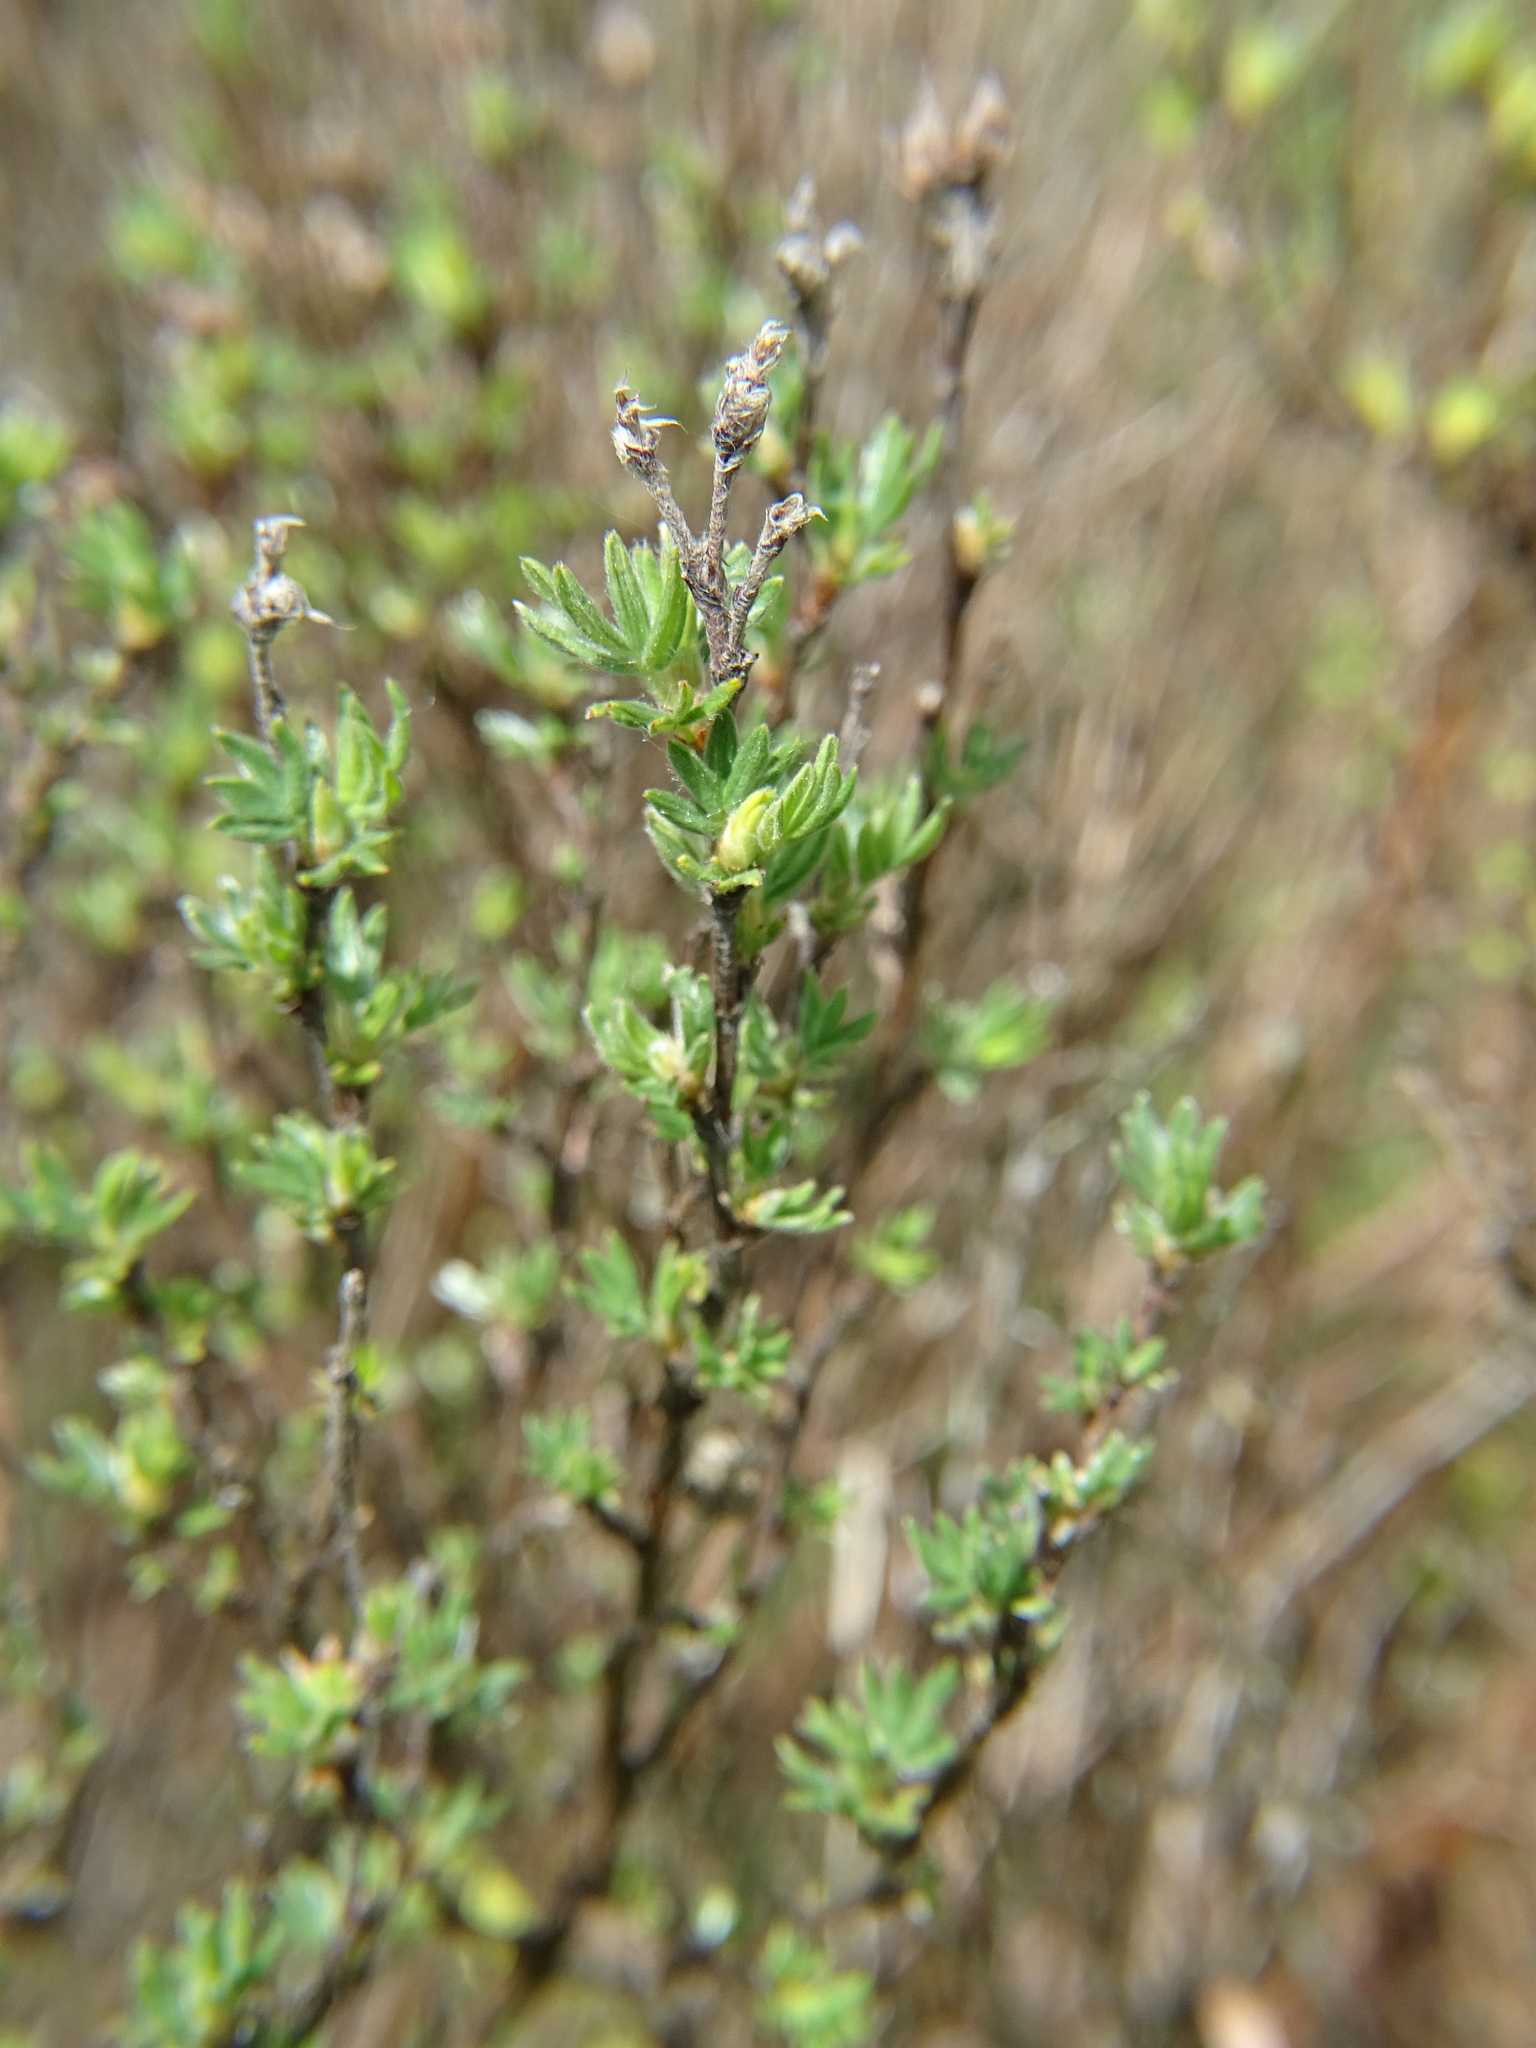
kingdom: Plantae
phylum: Tracheophyta
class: Magnoliopsida
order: Rosales
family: Rosaceae
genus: Dasiphora
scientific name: Dasiphora fruticosa
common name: Shrubby cinquefoil
